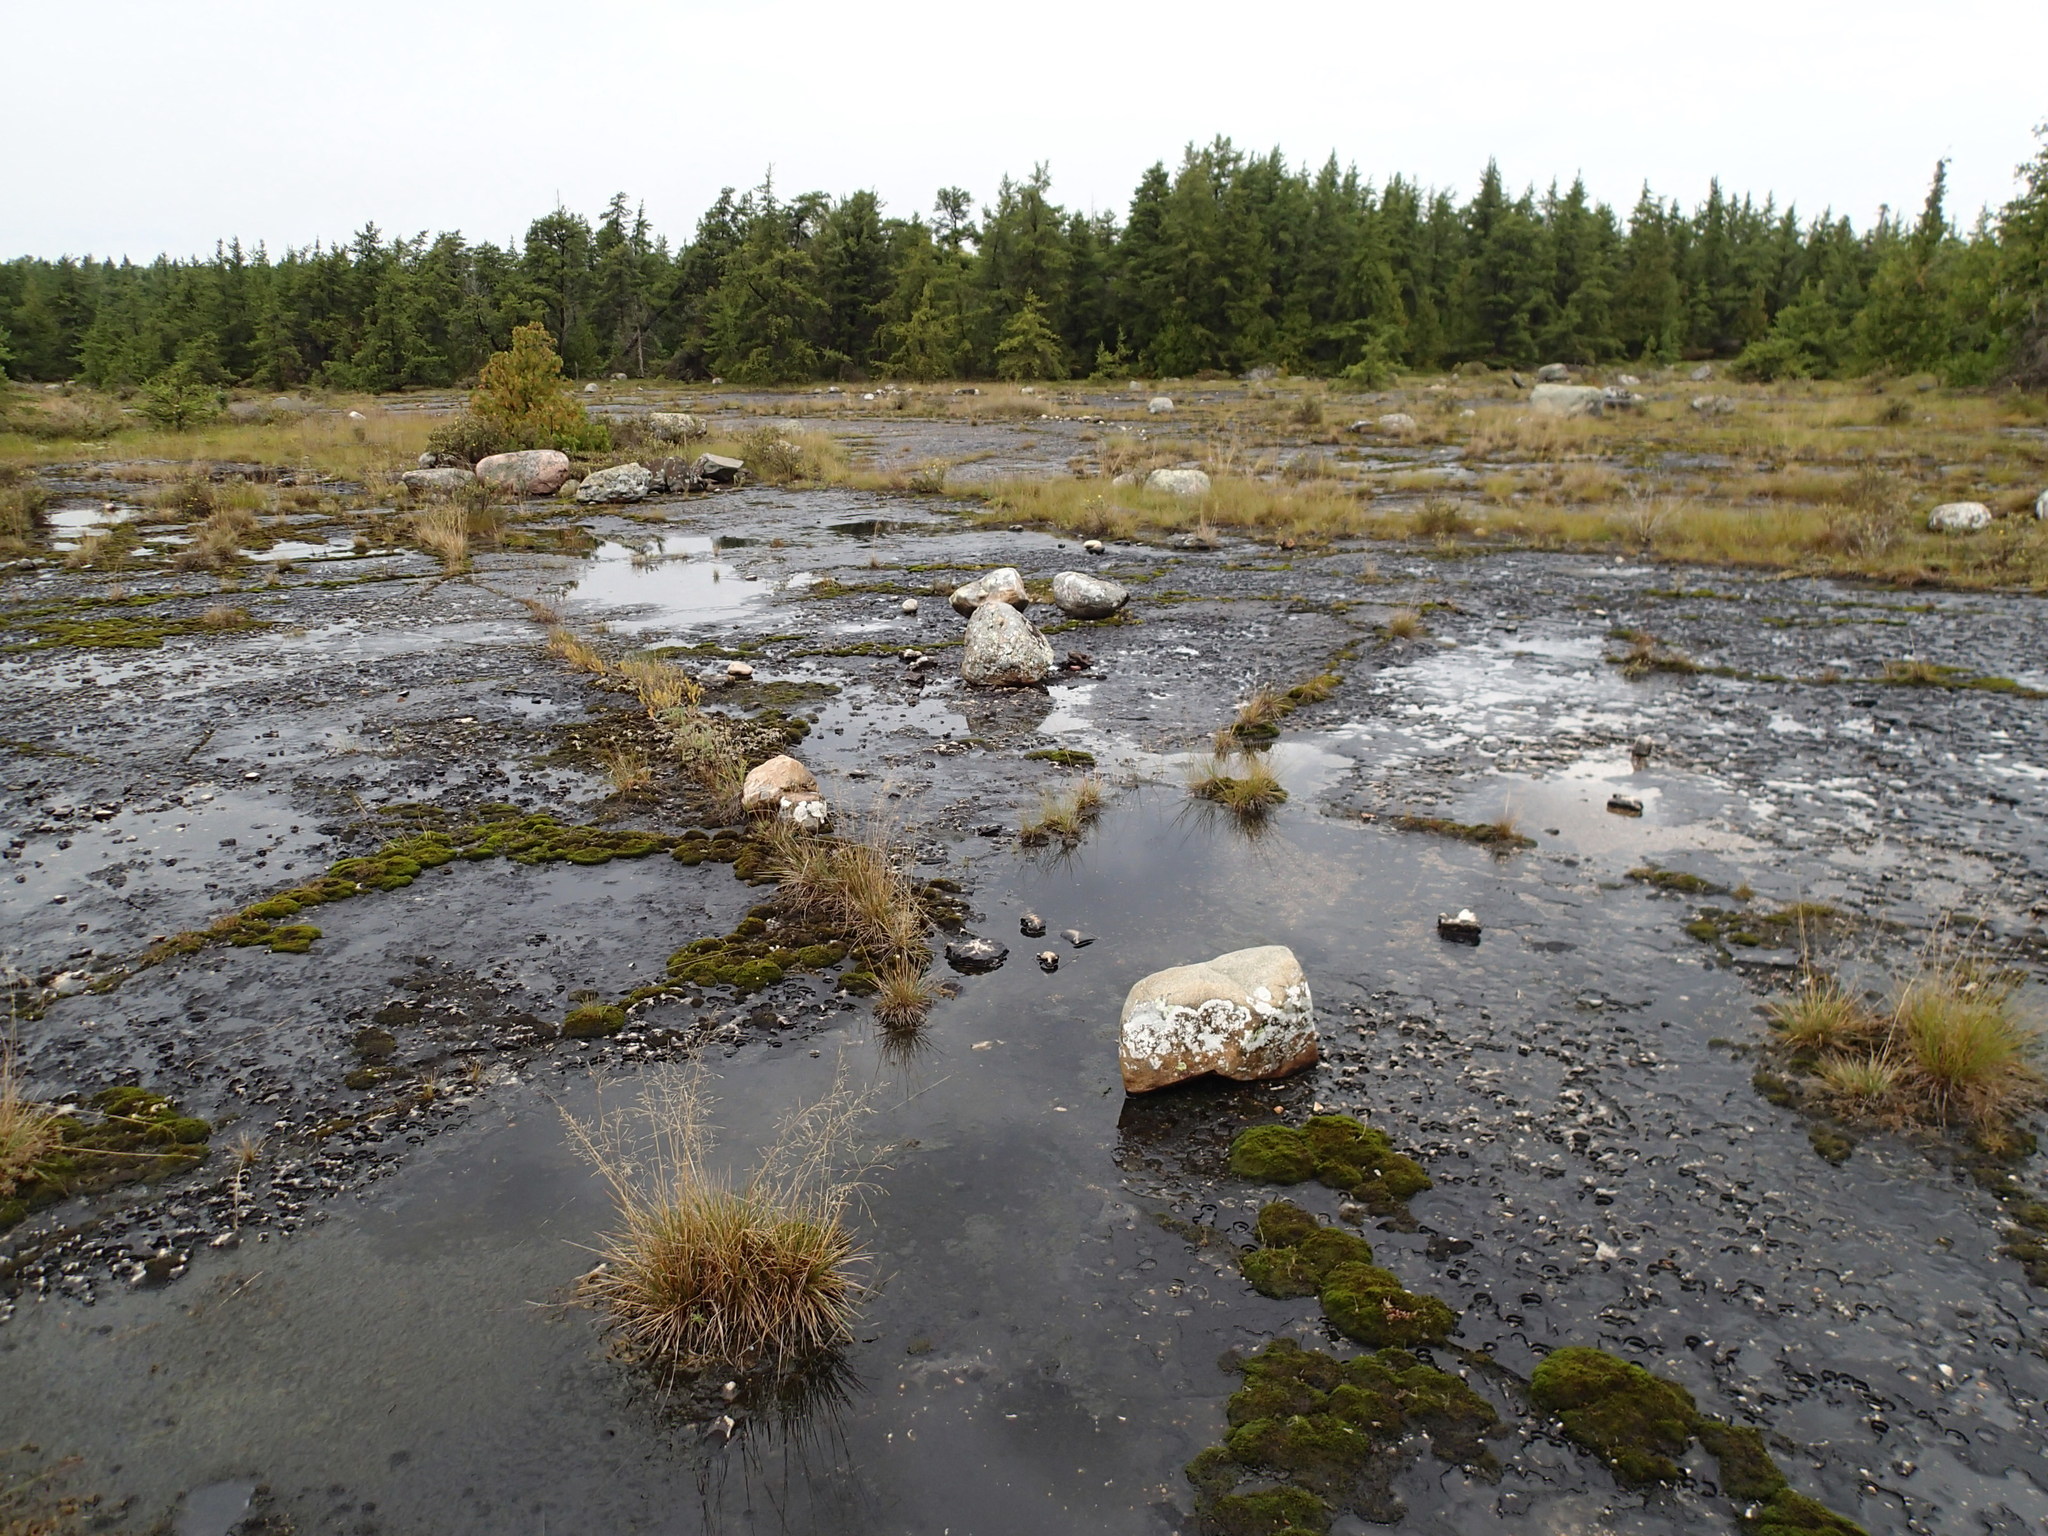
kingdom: Fungi
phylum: Ascomycota
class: Lecanoromycetes
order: Teloschistales
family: Teloschistaceae
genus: Gyalolechia
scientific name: Gyalolechia bracteata
